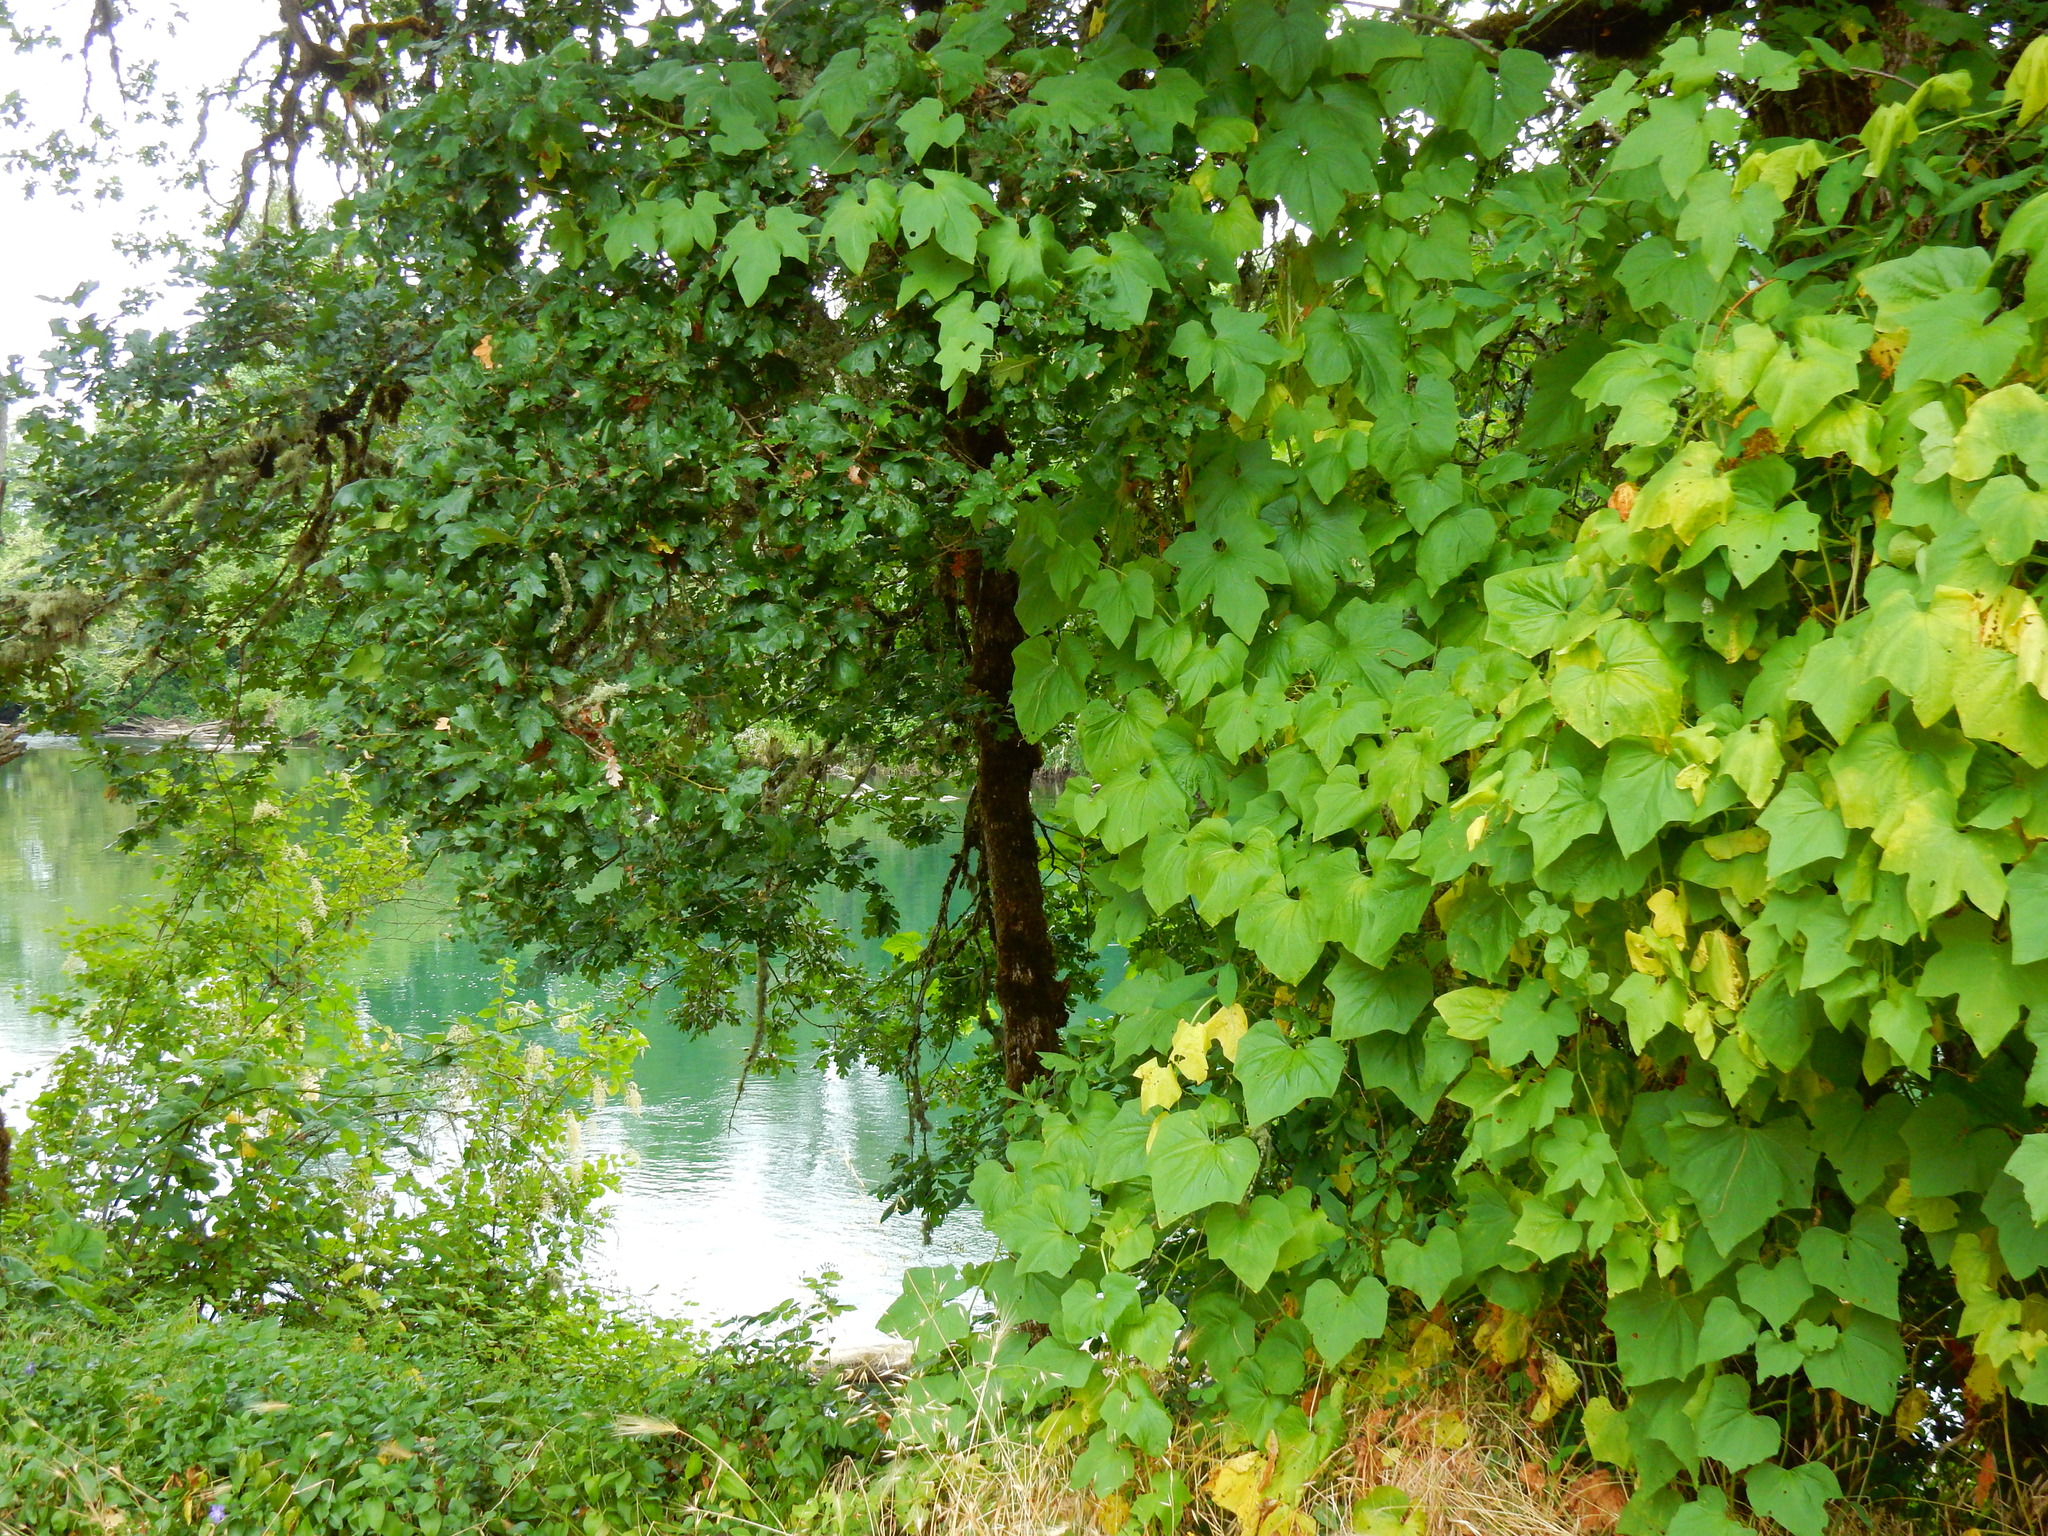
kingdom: Plantae
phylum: Tracheophyta
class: Magnoliopsida
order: Cucurbitales
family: Cucurbitaceae
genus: Marah
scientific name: Marah oregana
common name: Coastal manroot
